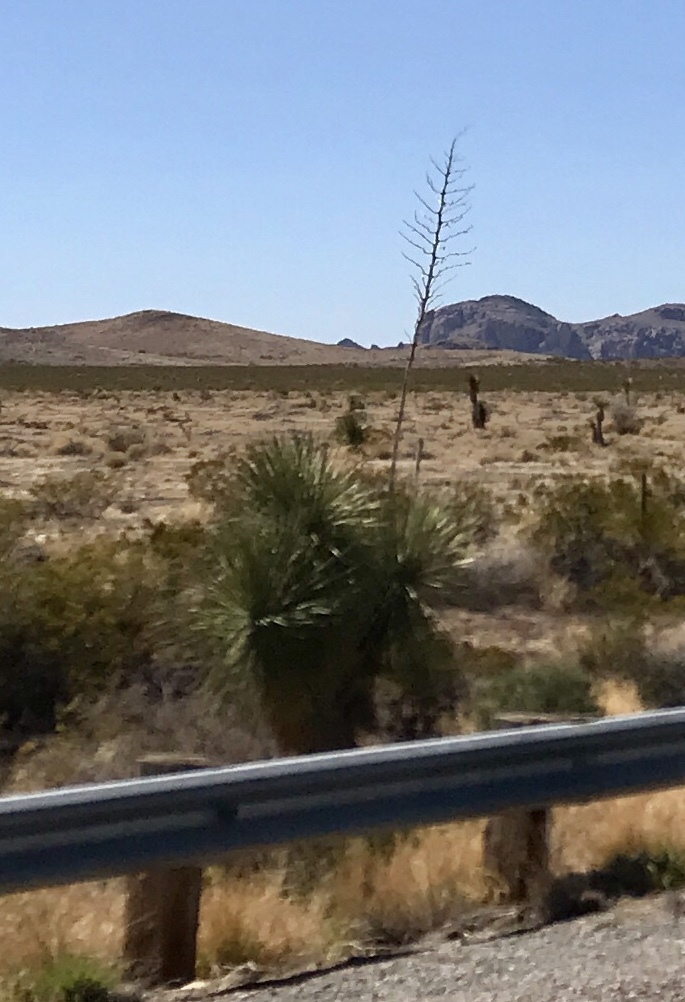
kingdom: Plantae
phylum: Tracheophyta
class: Liliopsida
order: Asparagales
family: Asparagaceae
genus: Yucca
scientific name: Yucca elata
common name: Palmella
